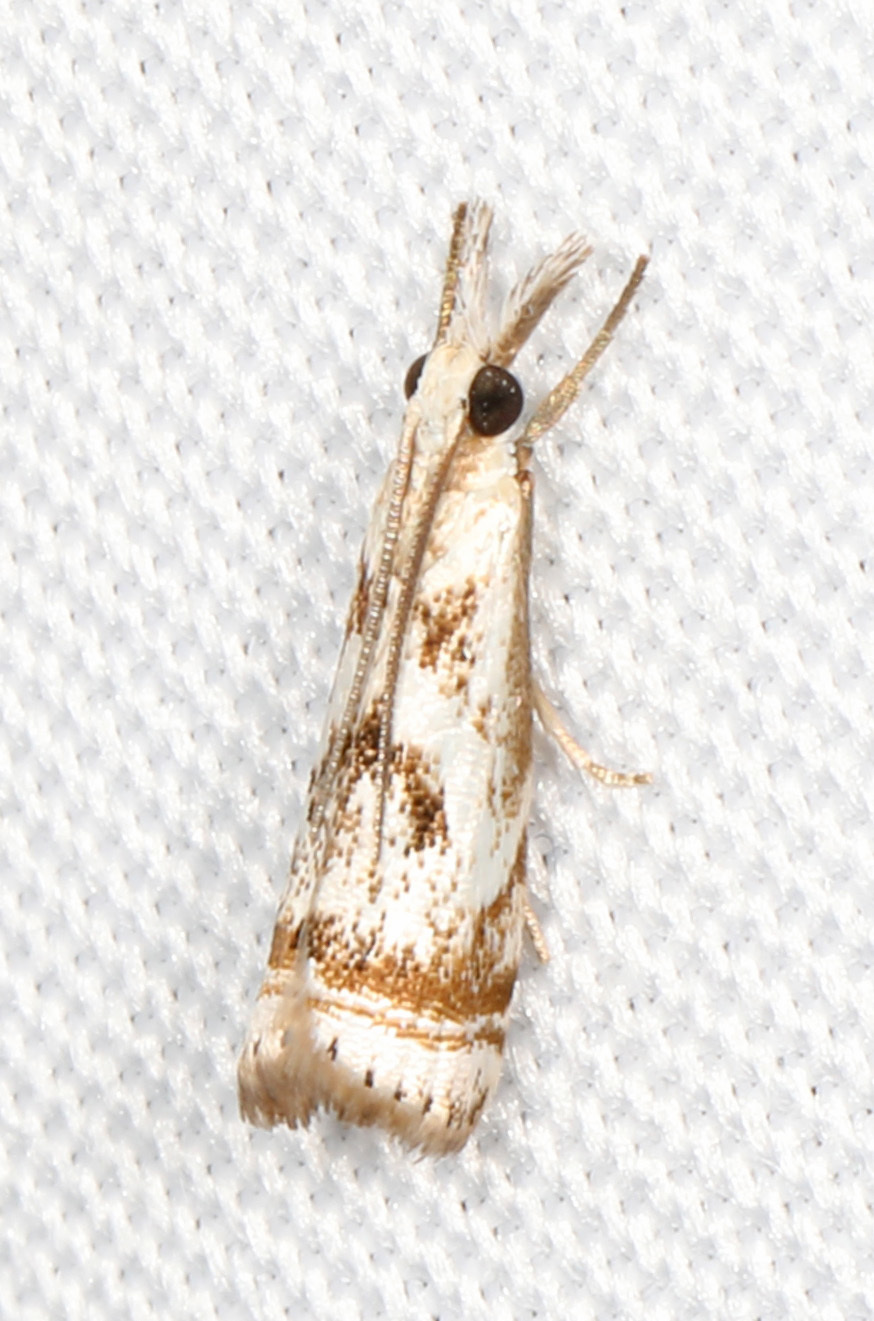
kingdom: Animalia
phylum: Arthropoda
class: Insecta
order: Lepidoptera
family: Crambidae
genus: Microcrambus
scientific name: Microcrambus elegans
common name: Elegant grass-veneer
